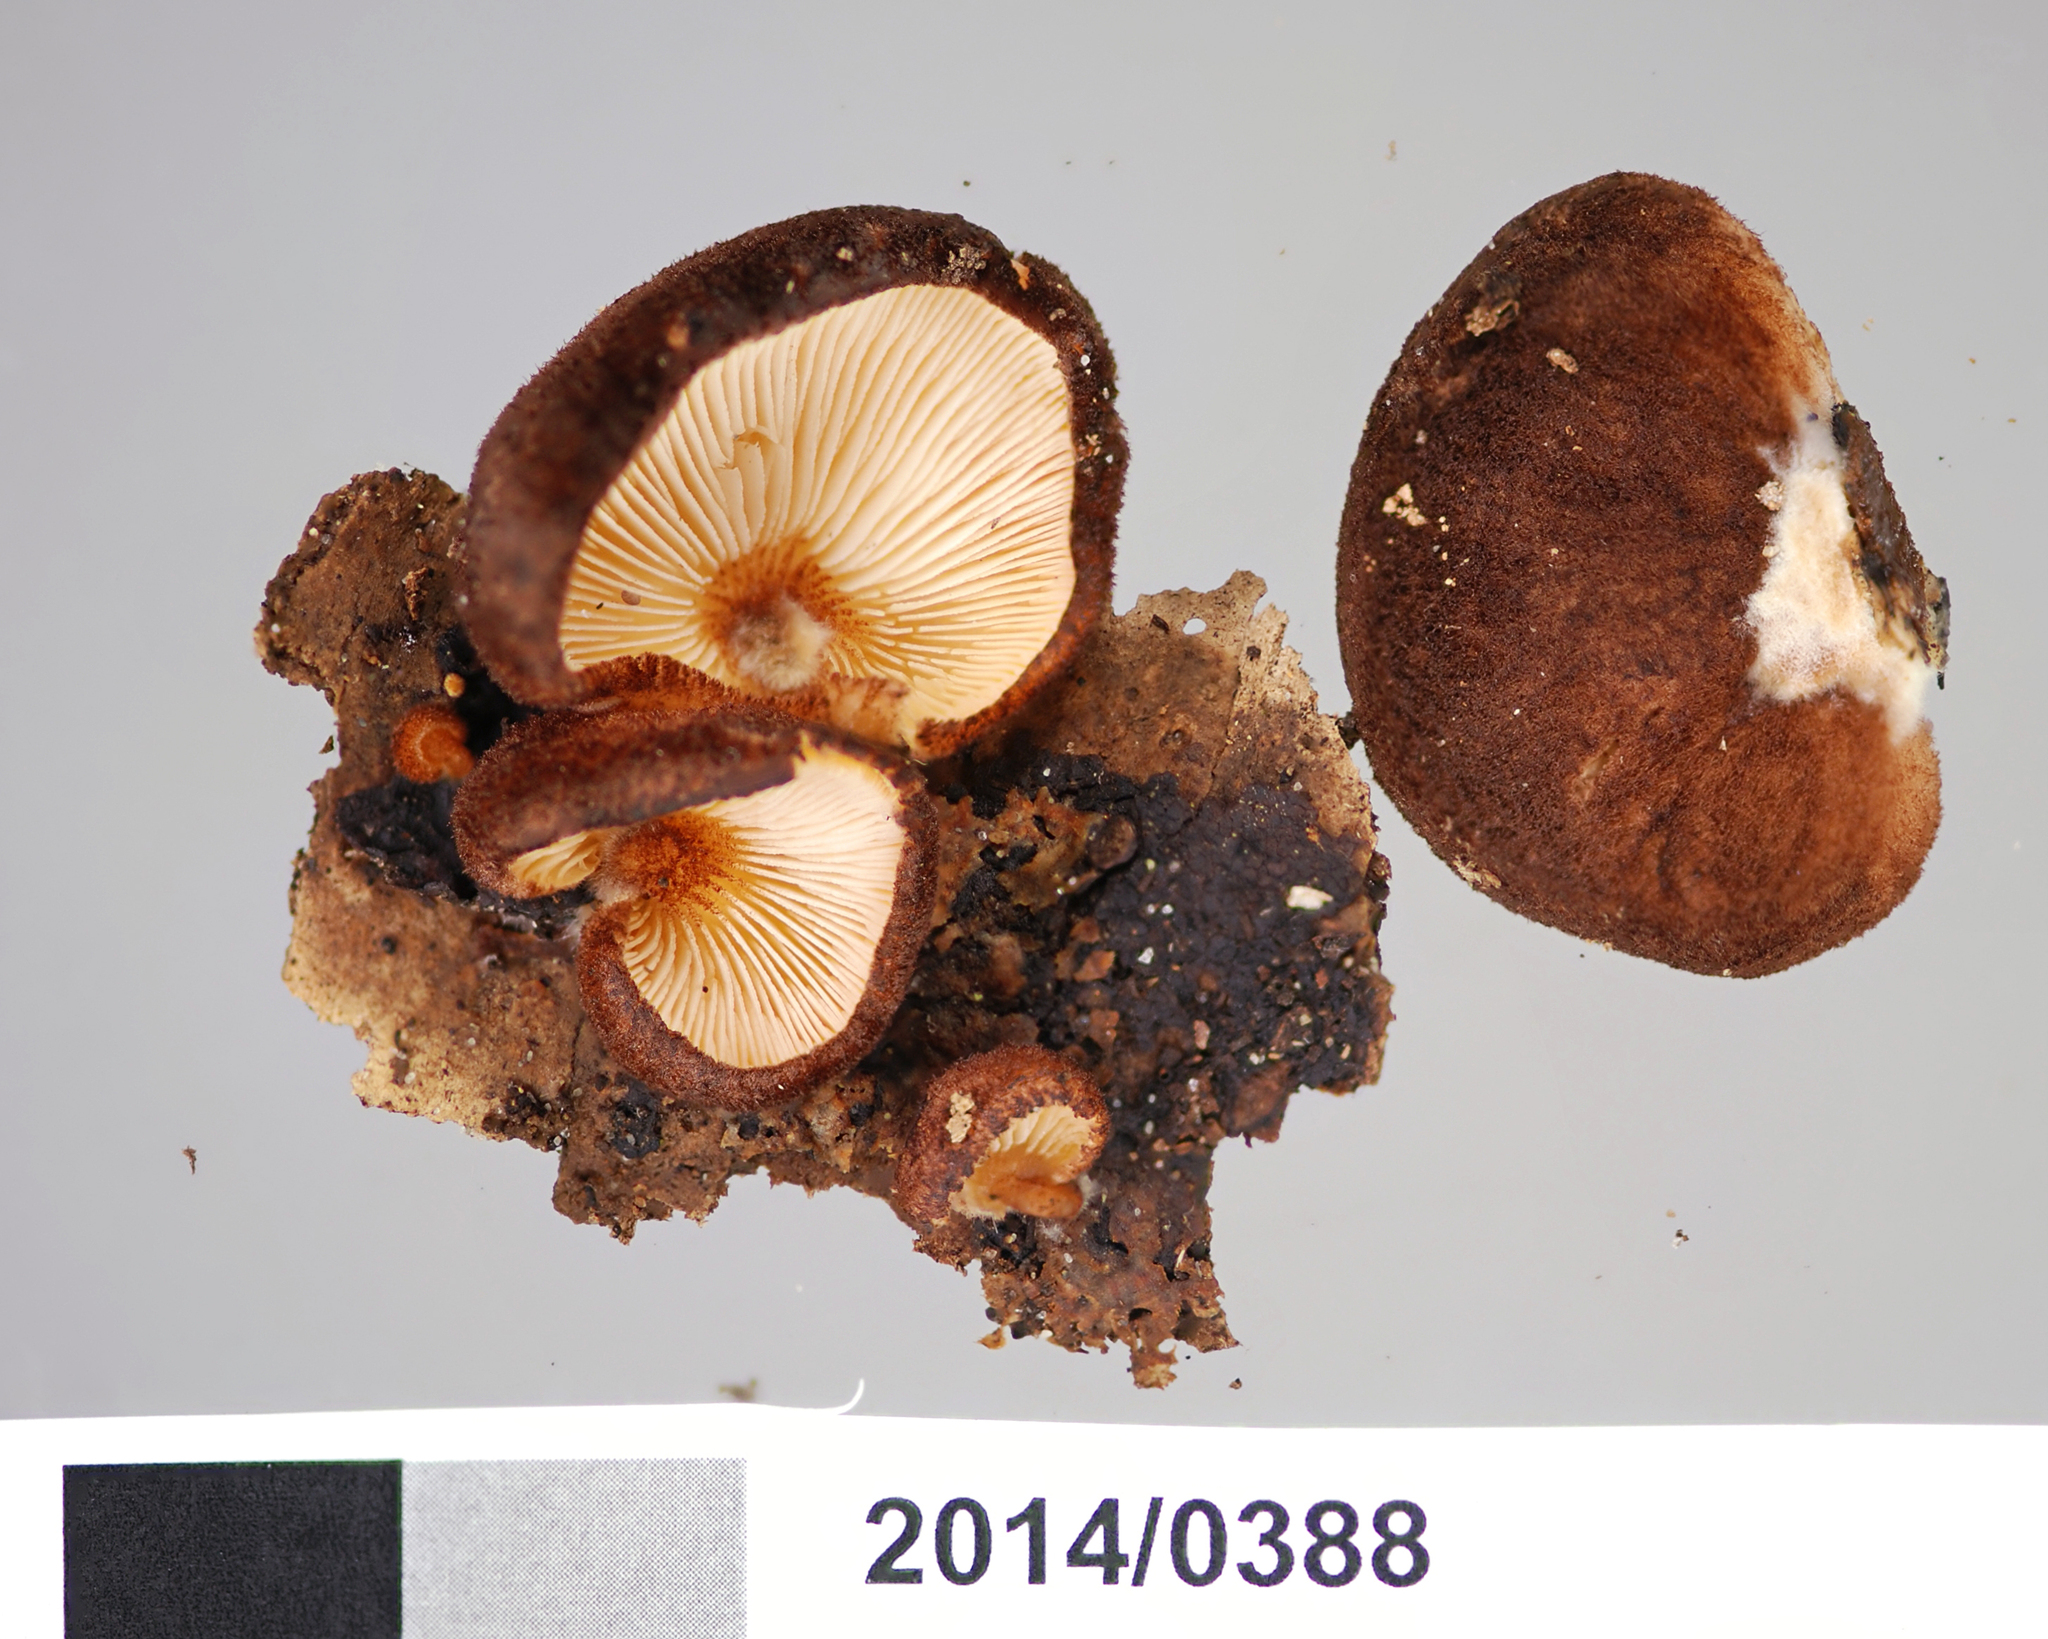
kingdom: Fungi
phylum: Basidiomycota
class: Agaricomycetes
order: Agaricales
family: Crepidotaceae
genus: Crepidotus
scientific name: Crepidotus fuscovelutinus
